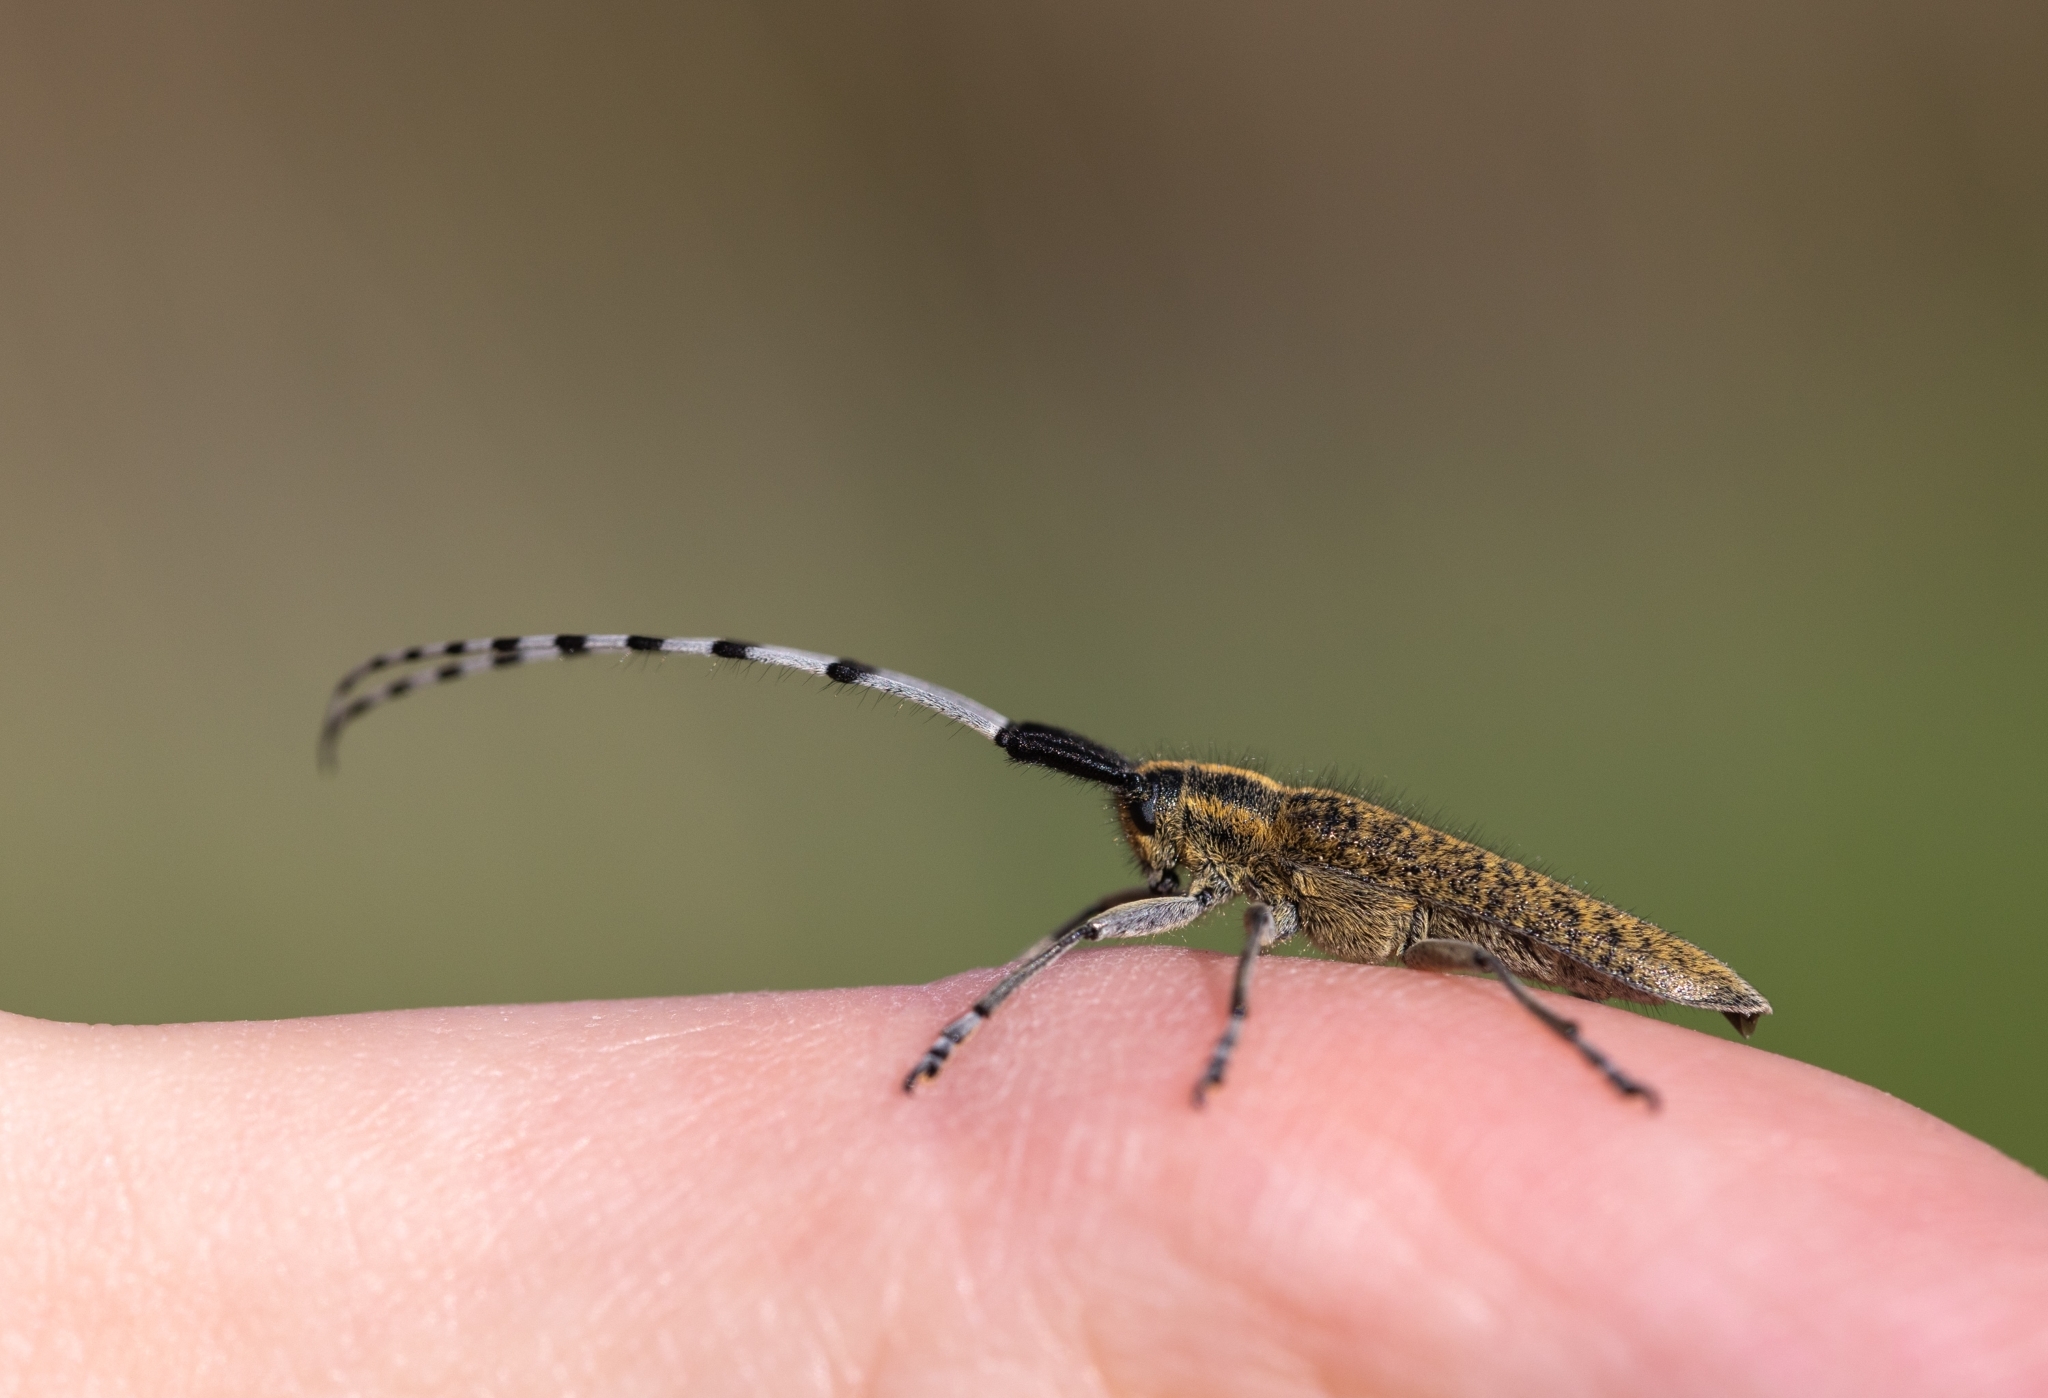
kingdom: Animalia
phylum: Arthropoda
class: Insecta
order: Coleoptera
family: Cerambycidae
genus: Agapanthia
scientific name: Agapanthia villosoviridescens
